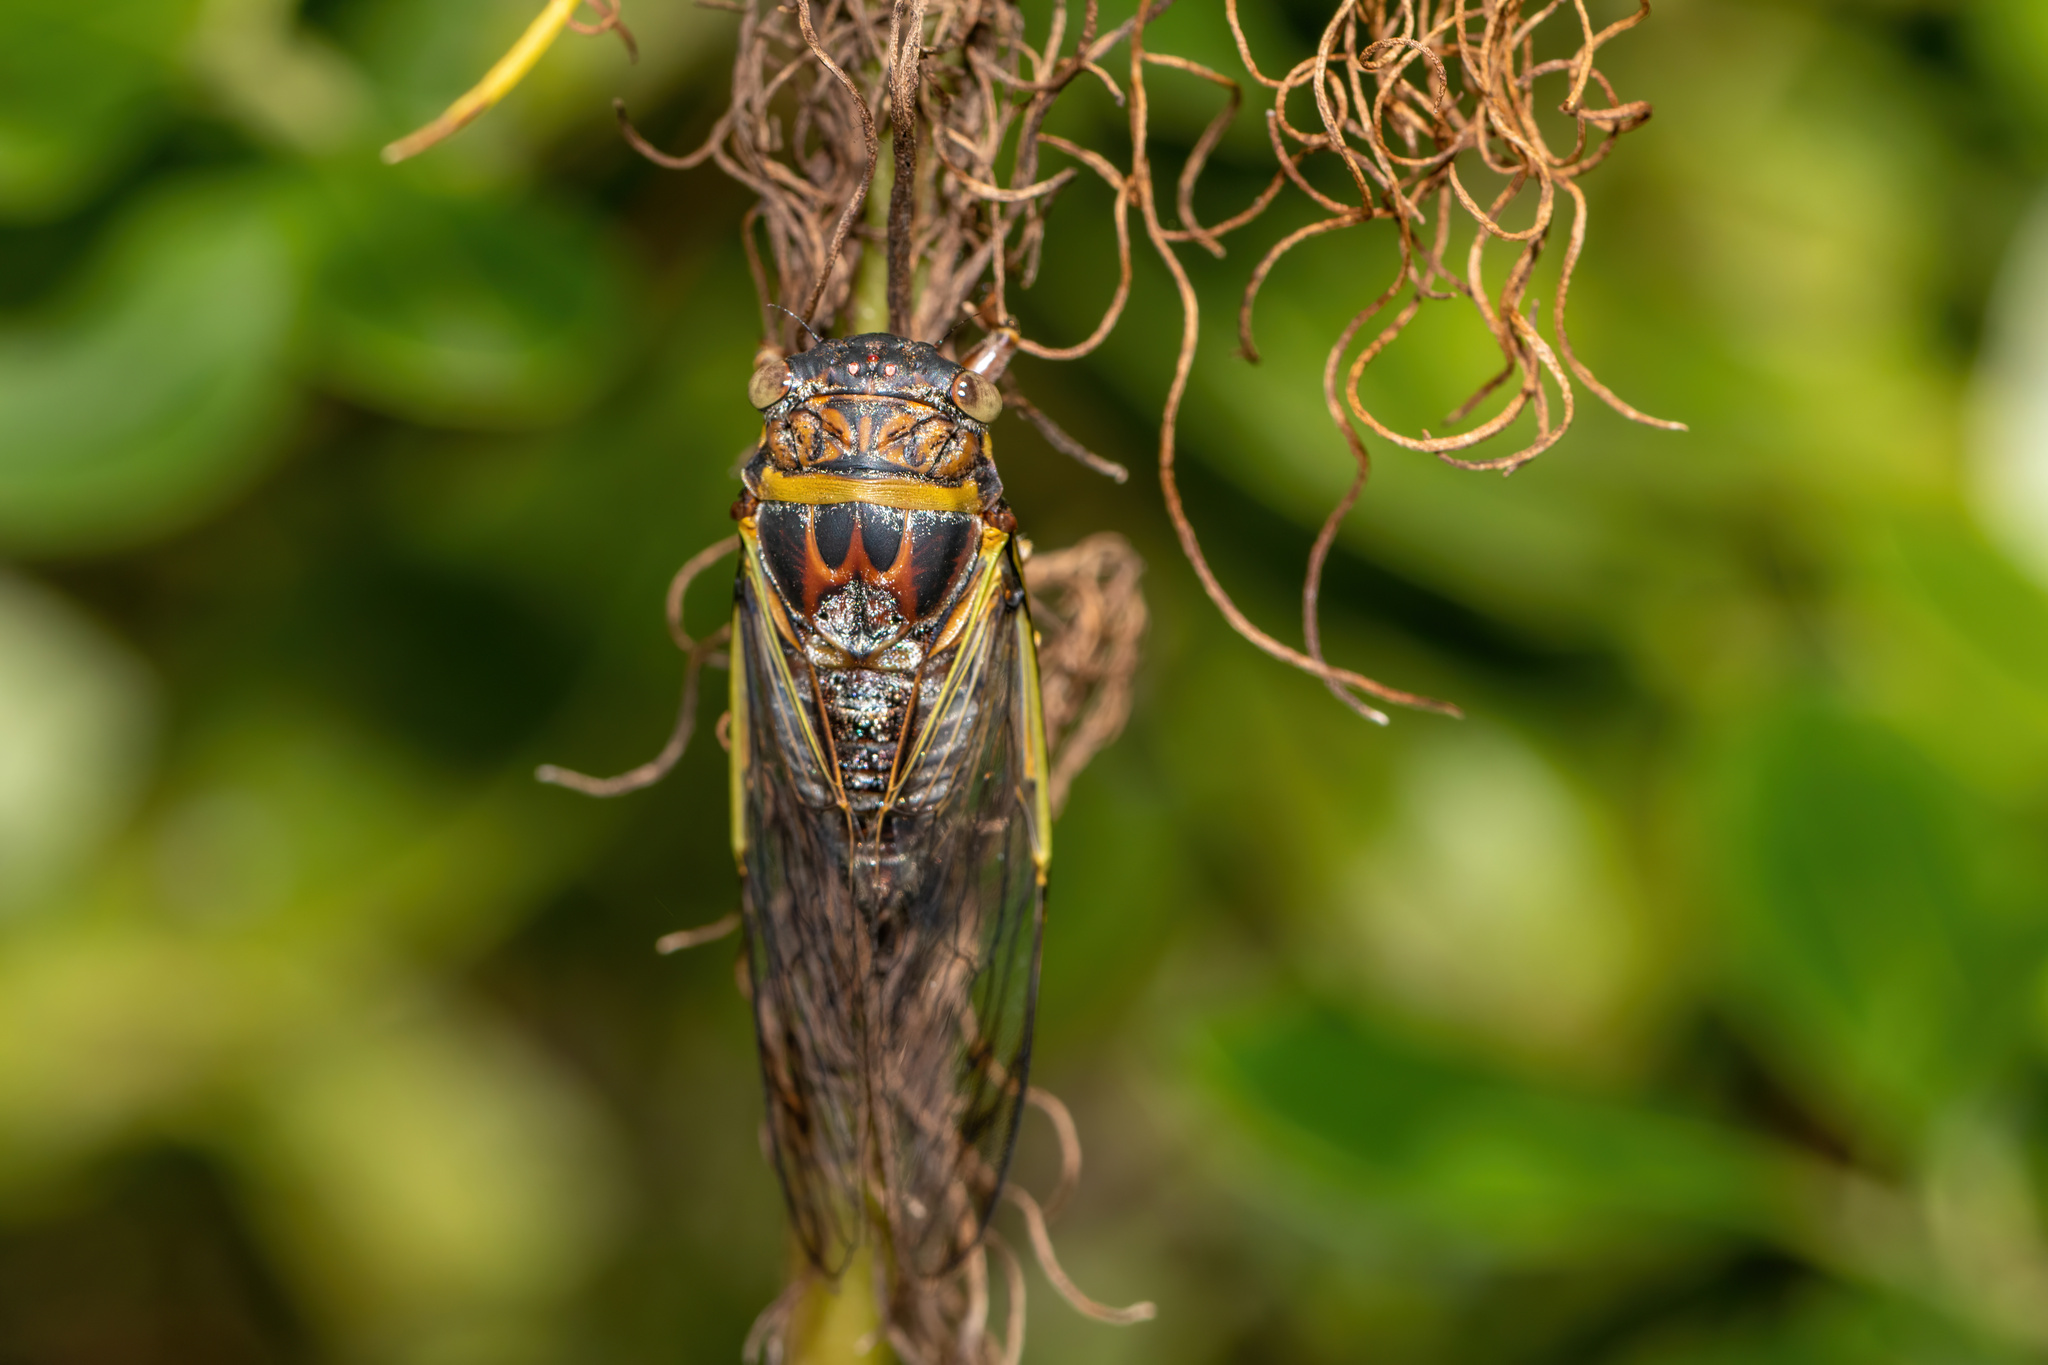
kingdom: Animalia
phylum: Arthropoda
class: Insecta
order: Hemiptera
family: Cicadidae
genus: Diceroprocta
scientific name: Diceroprocta olympusa
